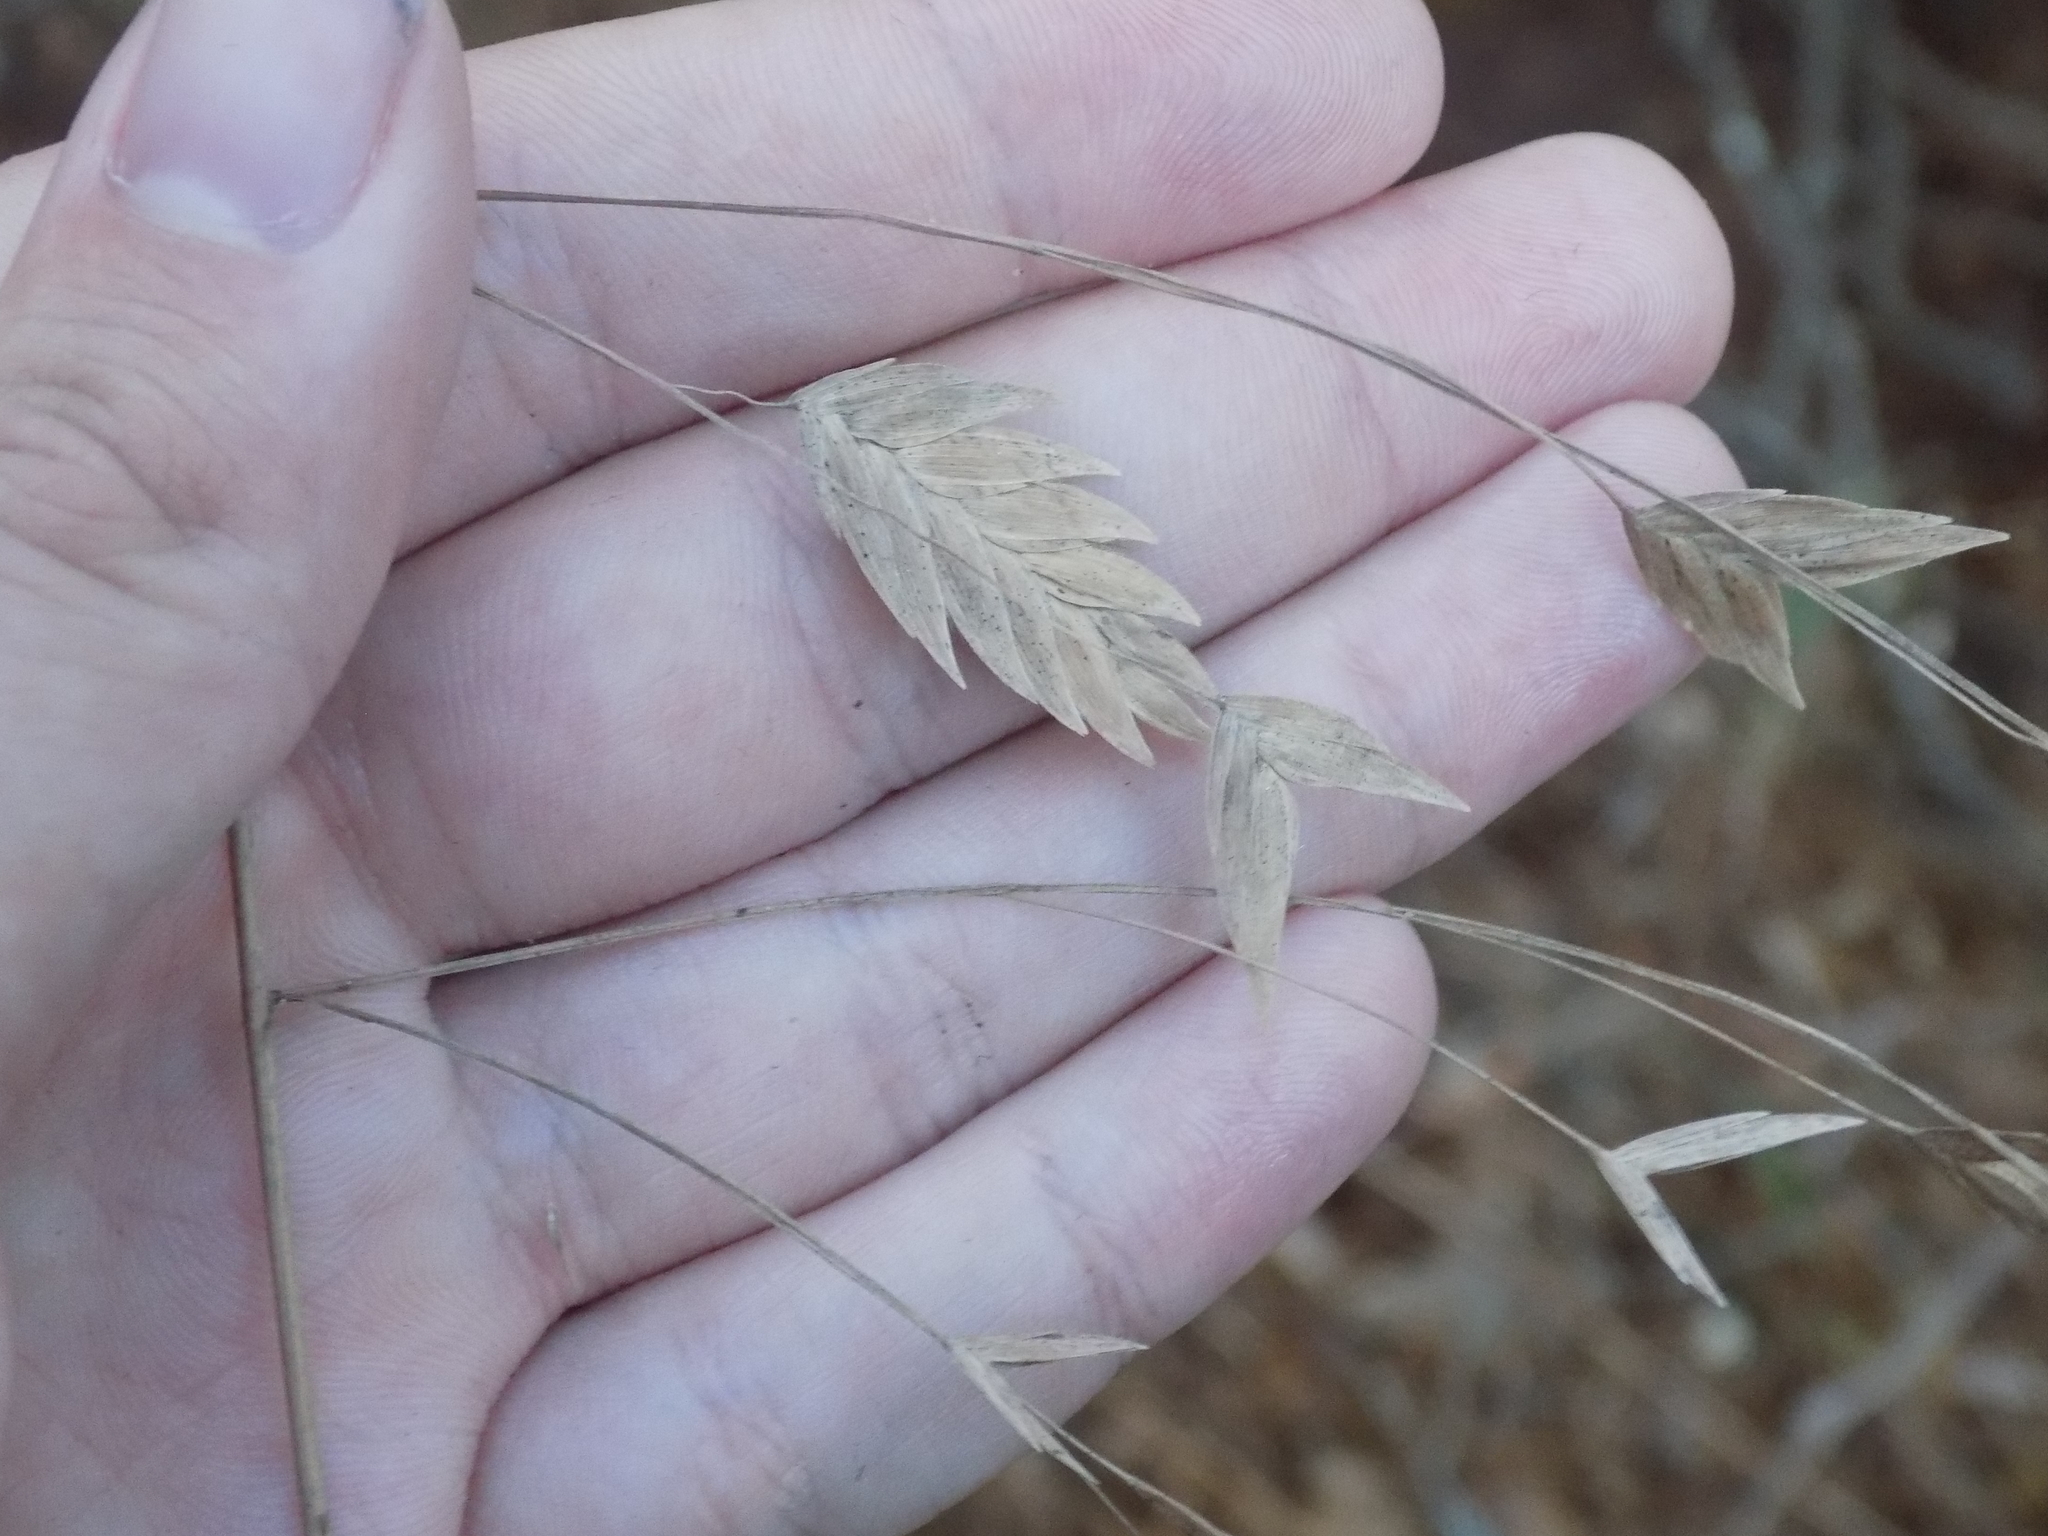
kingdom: Plantae
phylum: Tracheophyta
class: Liliopsida
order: Poales
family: Poaceae
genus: Chasmanthium
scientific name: Chasmanthium latifolium
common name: Broad-leaved chasmanthium
